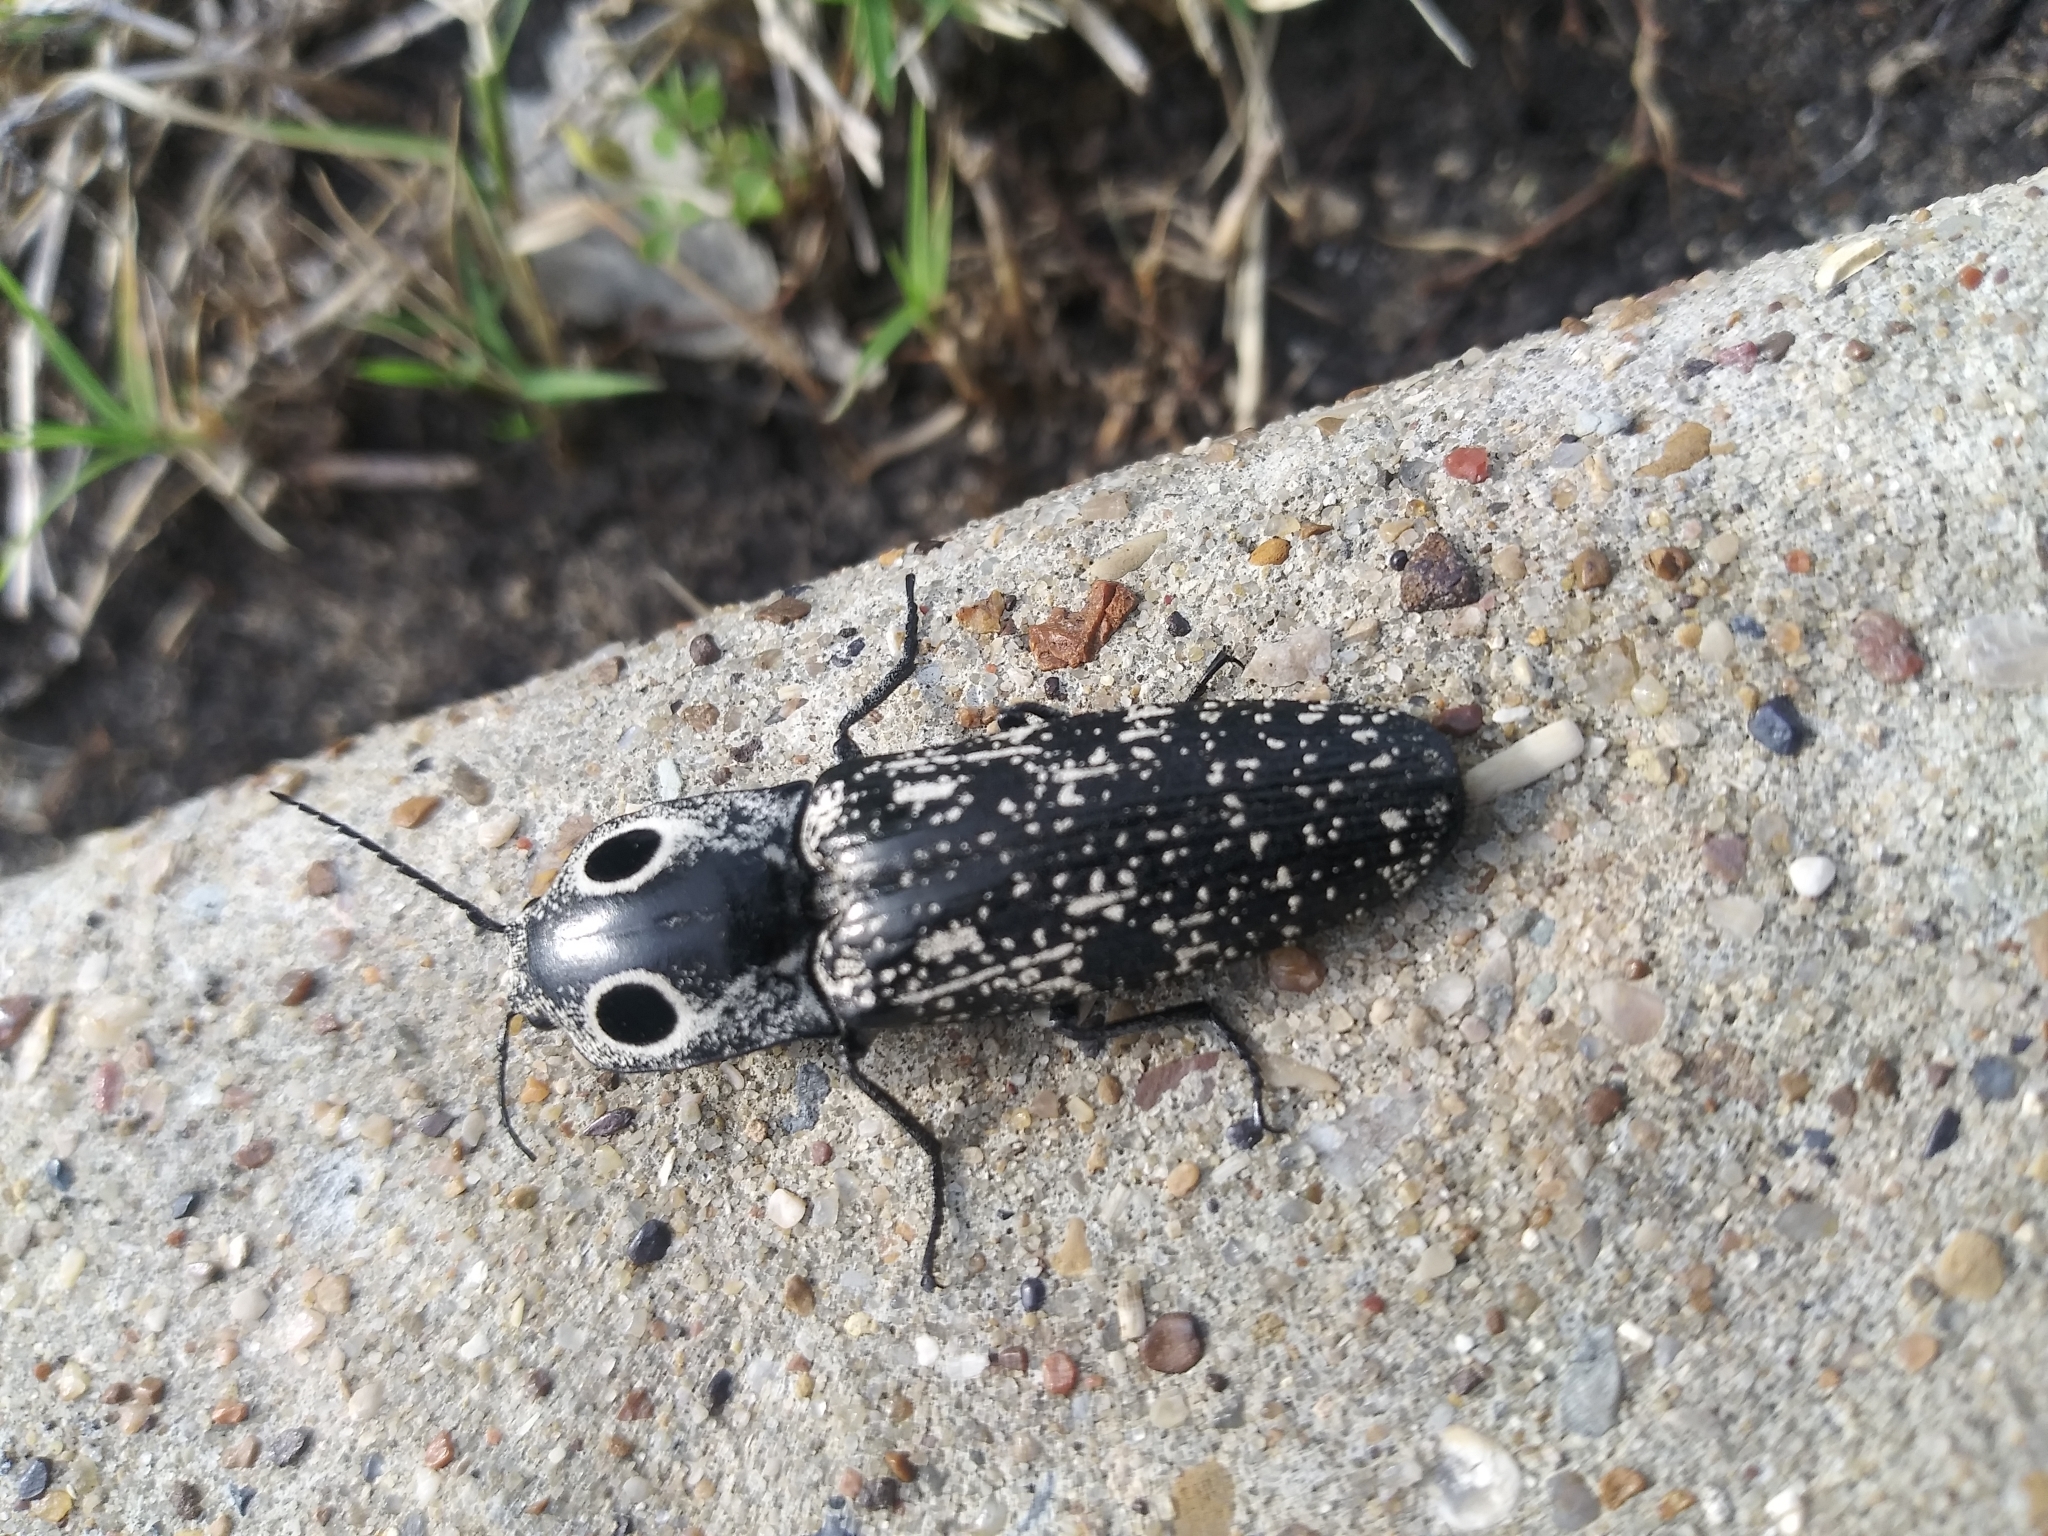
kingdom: Animalia
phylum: Arthropoda
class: Insecta
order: Coleoptera
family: Elateridae
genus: Alaus
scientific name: Alaus
